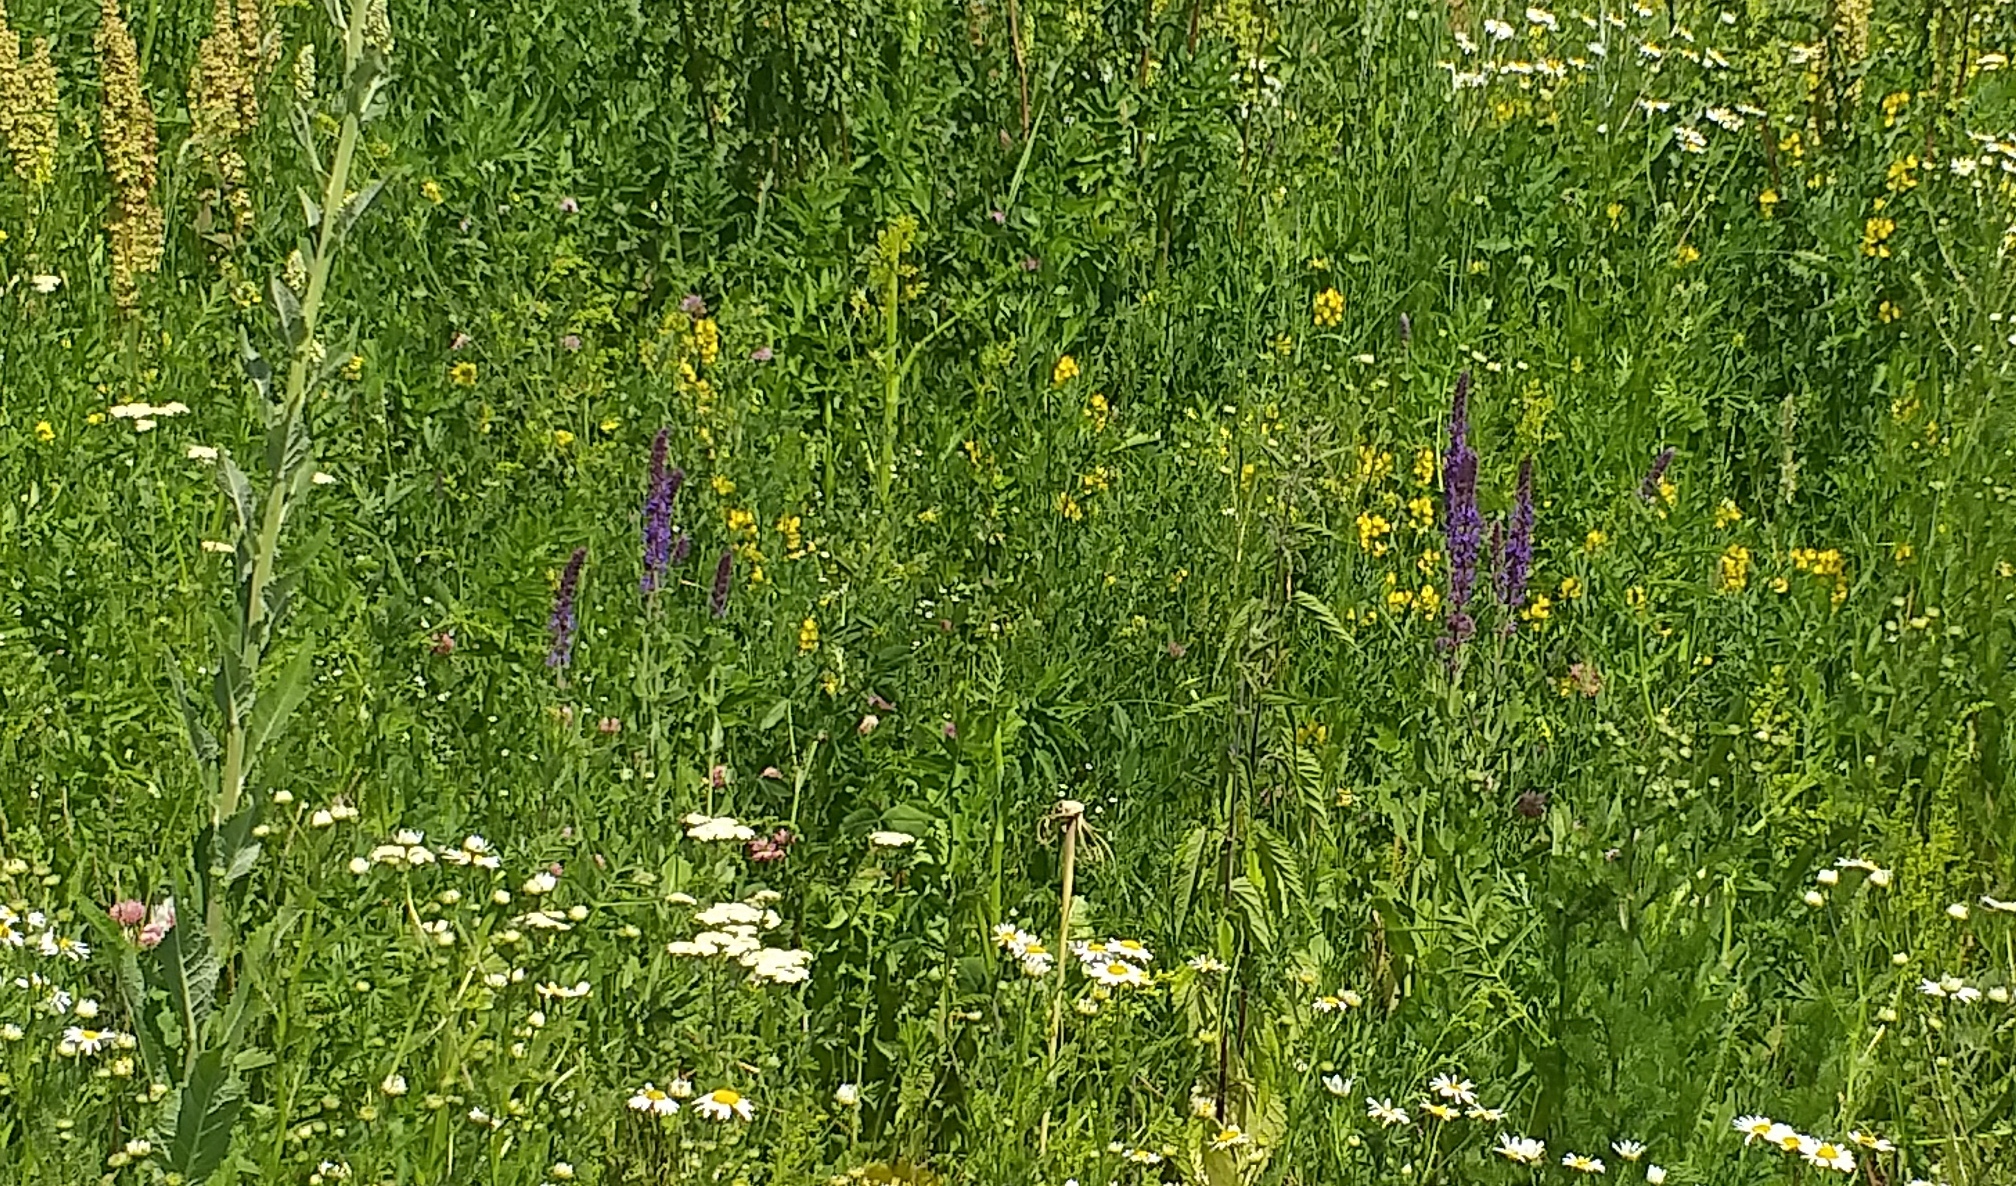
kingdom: Plantae
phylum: Tracheophyta
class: Magnoliopsida
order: Lamiales
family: Lamiaceae
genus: Salvia
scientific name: Salvia nemorosa
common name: Balkan clary
